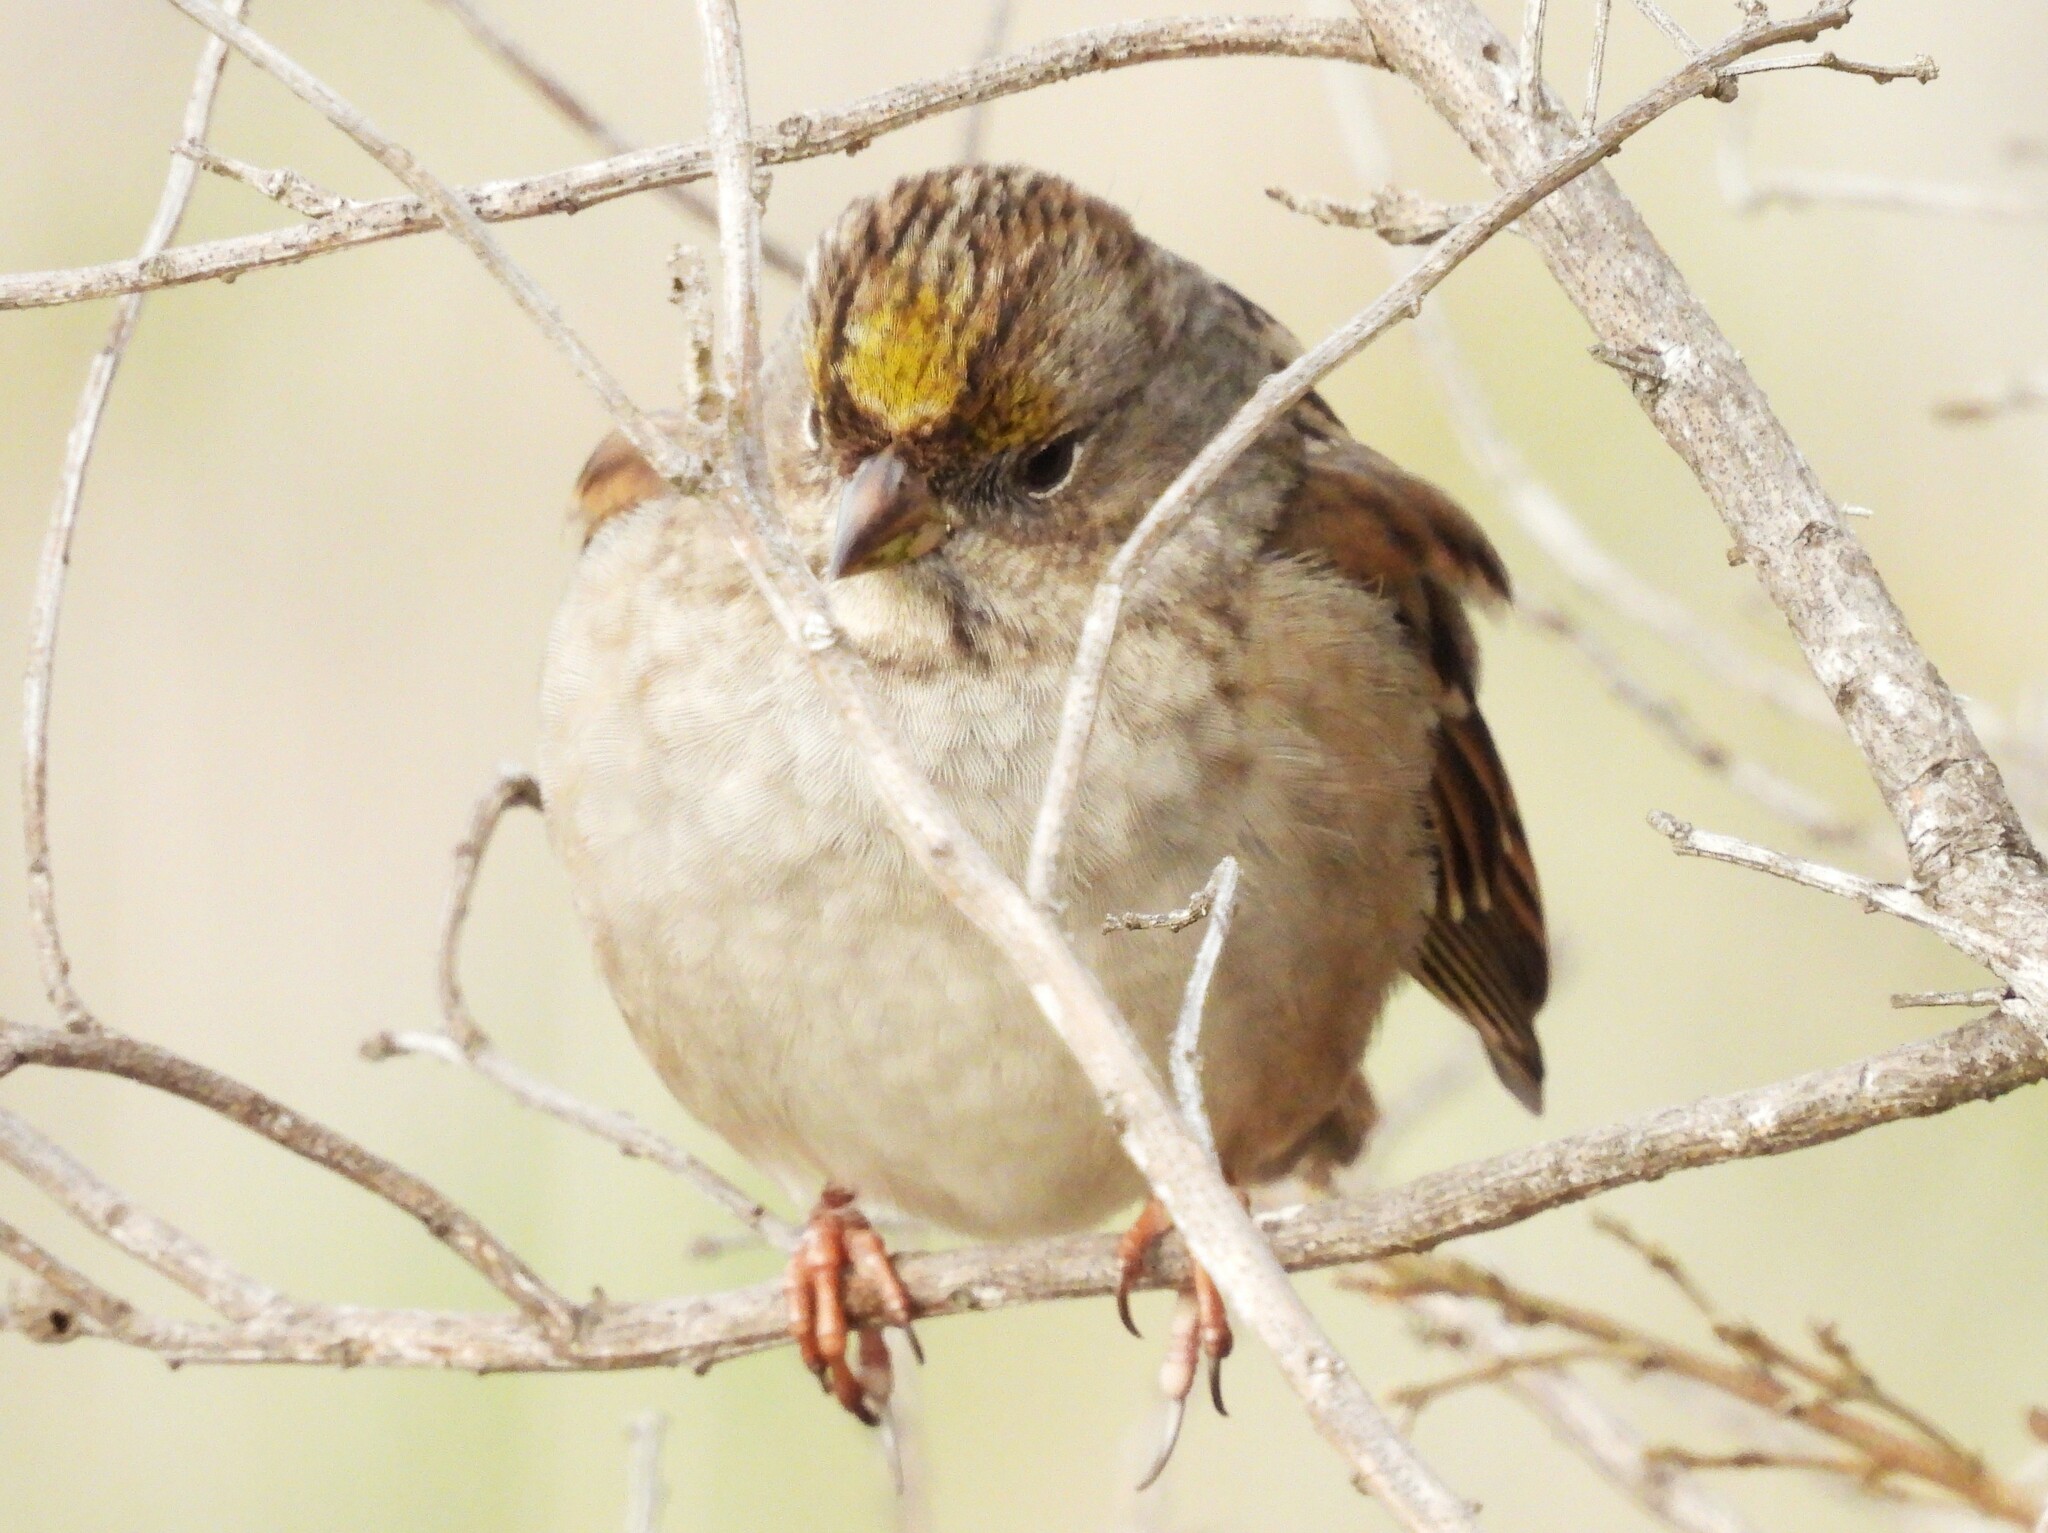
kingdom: Animalia
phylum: Chordata
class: Aves
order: Passeriformes
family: Passerellidae
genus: Zonotrichia
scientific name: Zonotrichia atricapilla
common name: Golden-crowned sparrow
